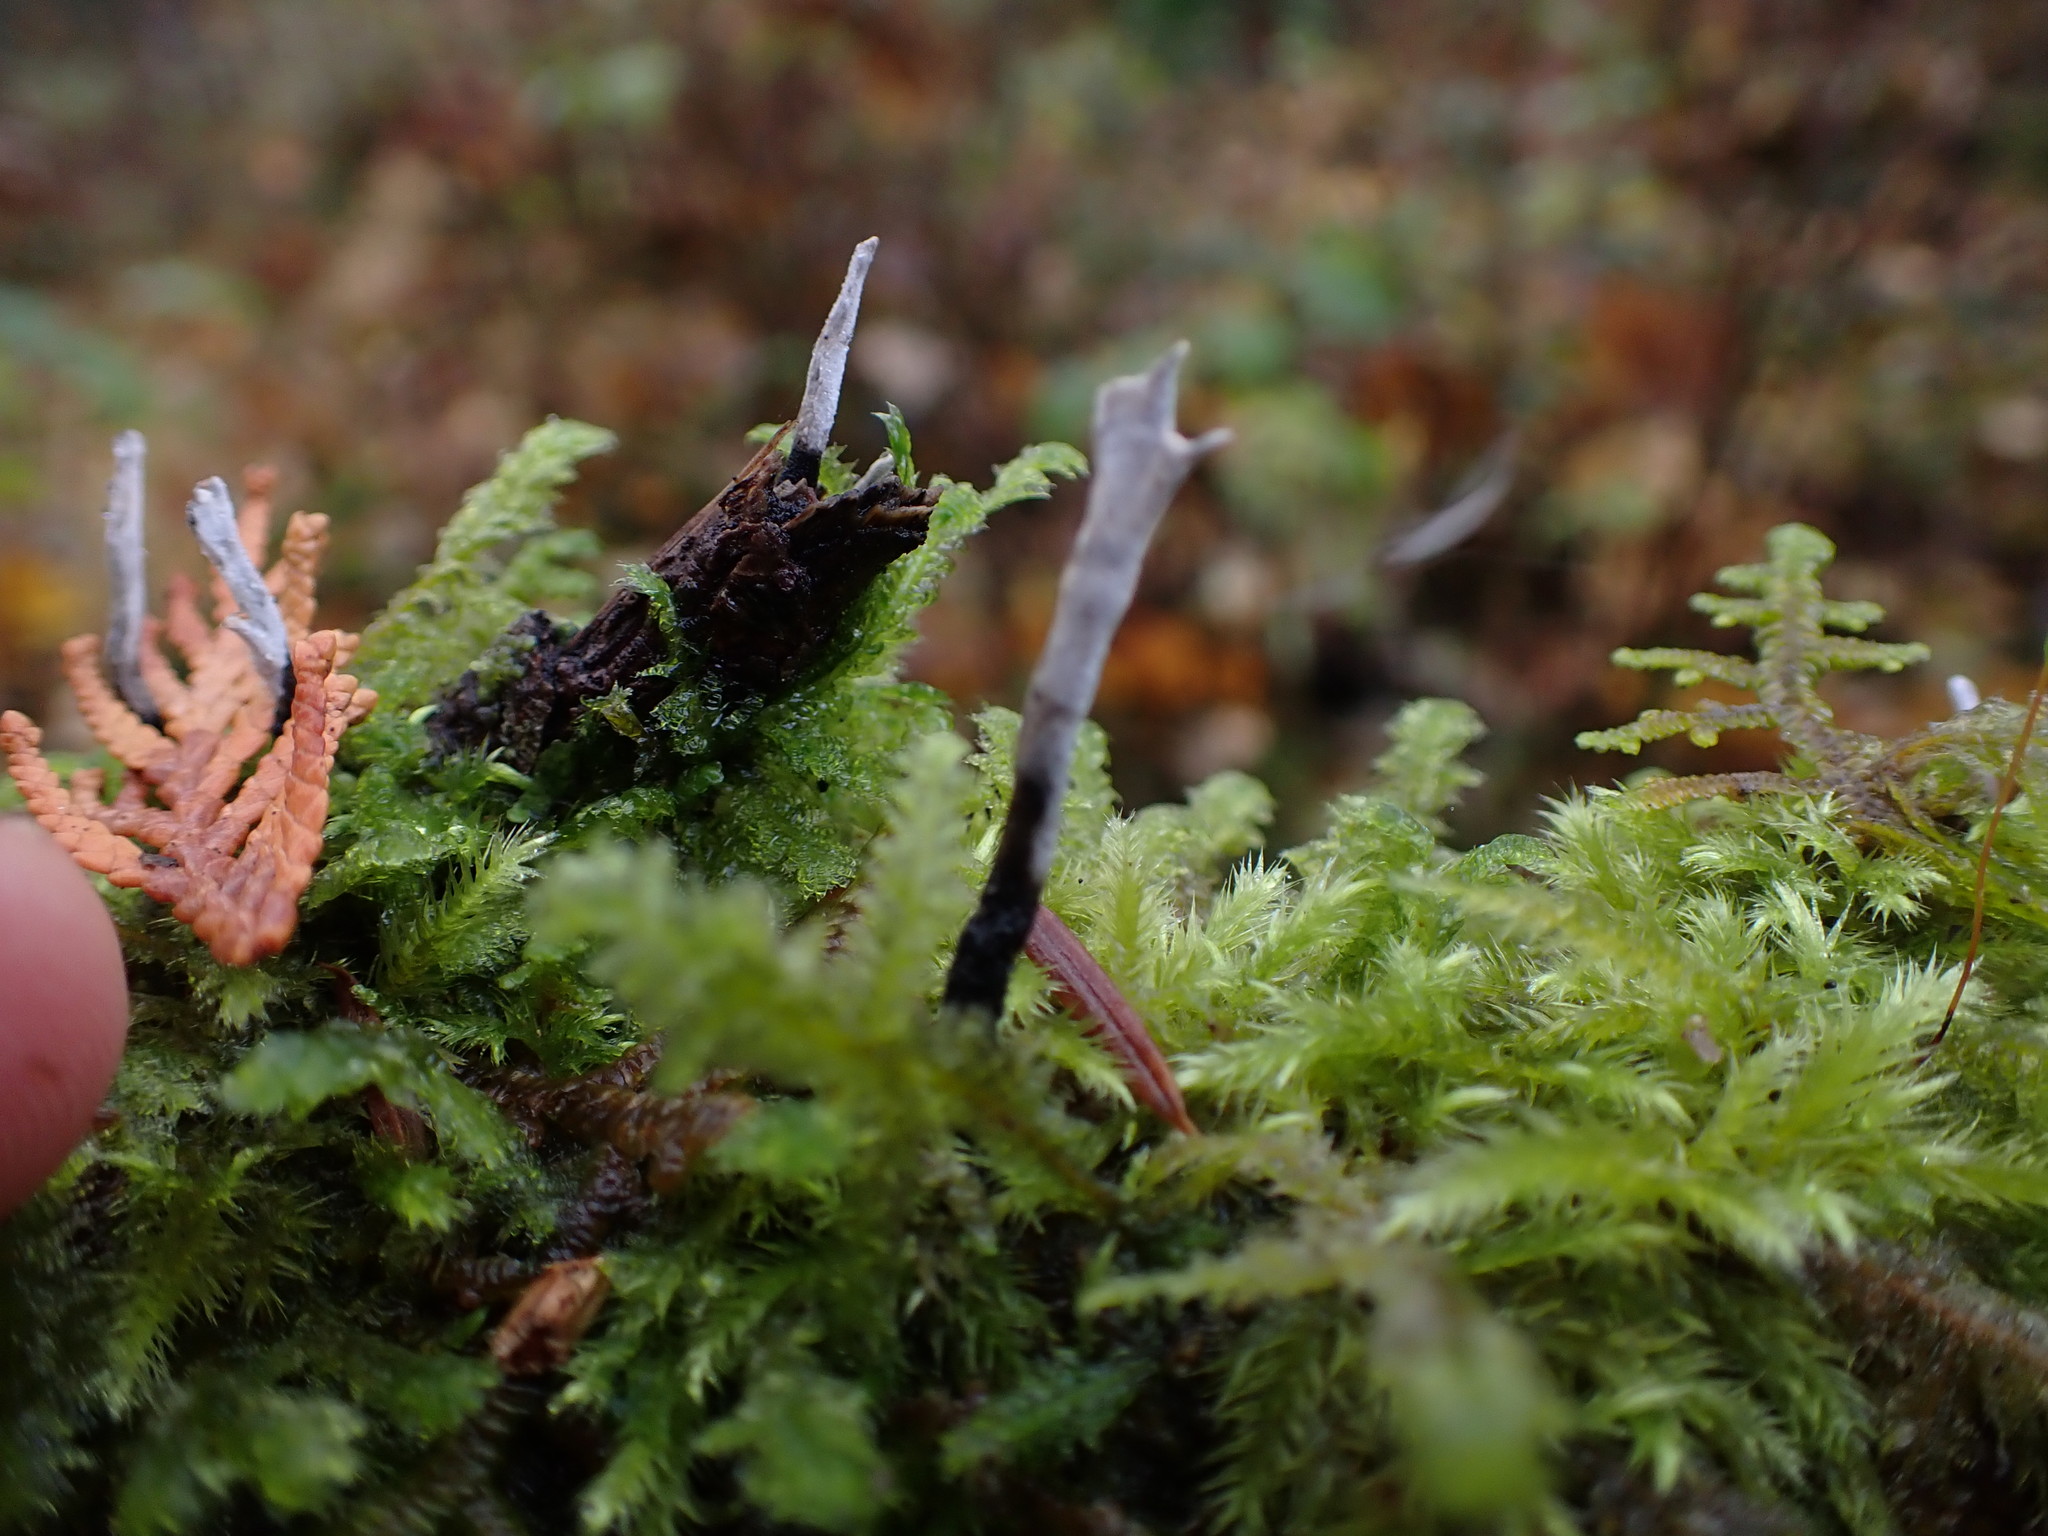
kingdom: Fungi
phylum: Ascomycota
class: Sordariomycetes
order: Xylariales
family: Xylariaceae
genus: Xylaria
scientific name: Xylaria hypoxylon
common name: Candle-snuff fungus
